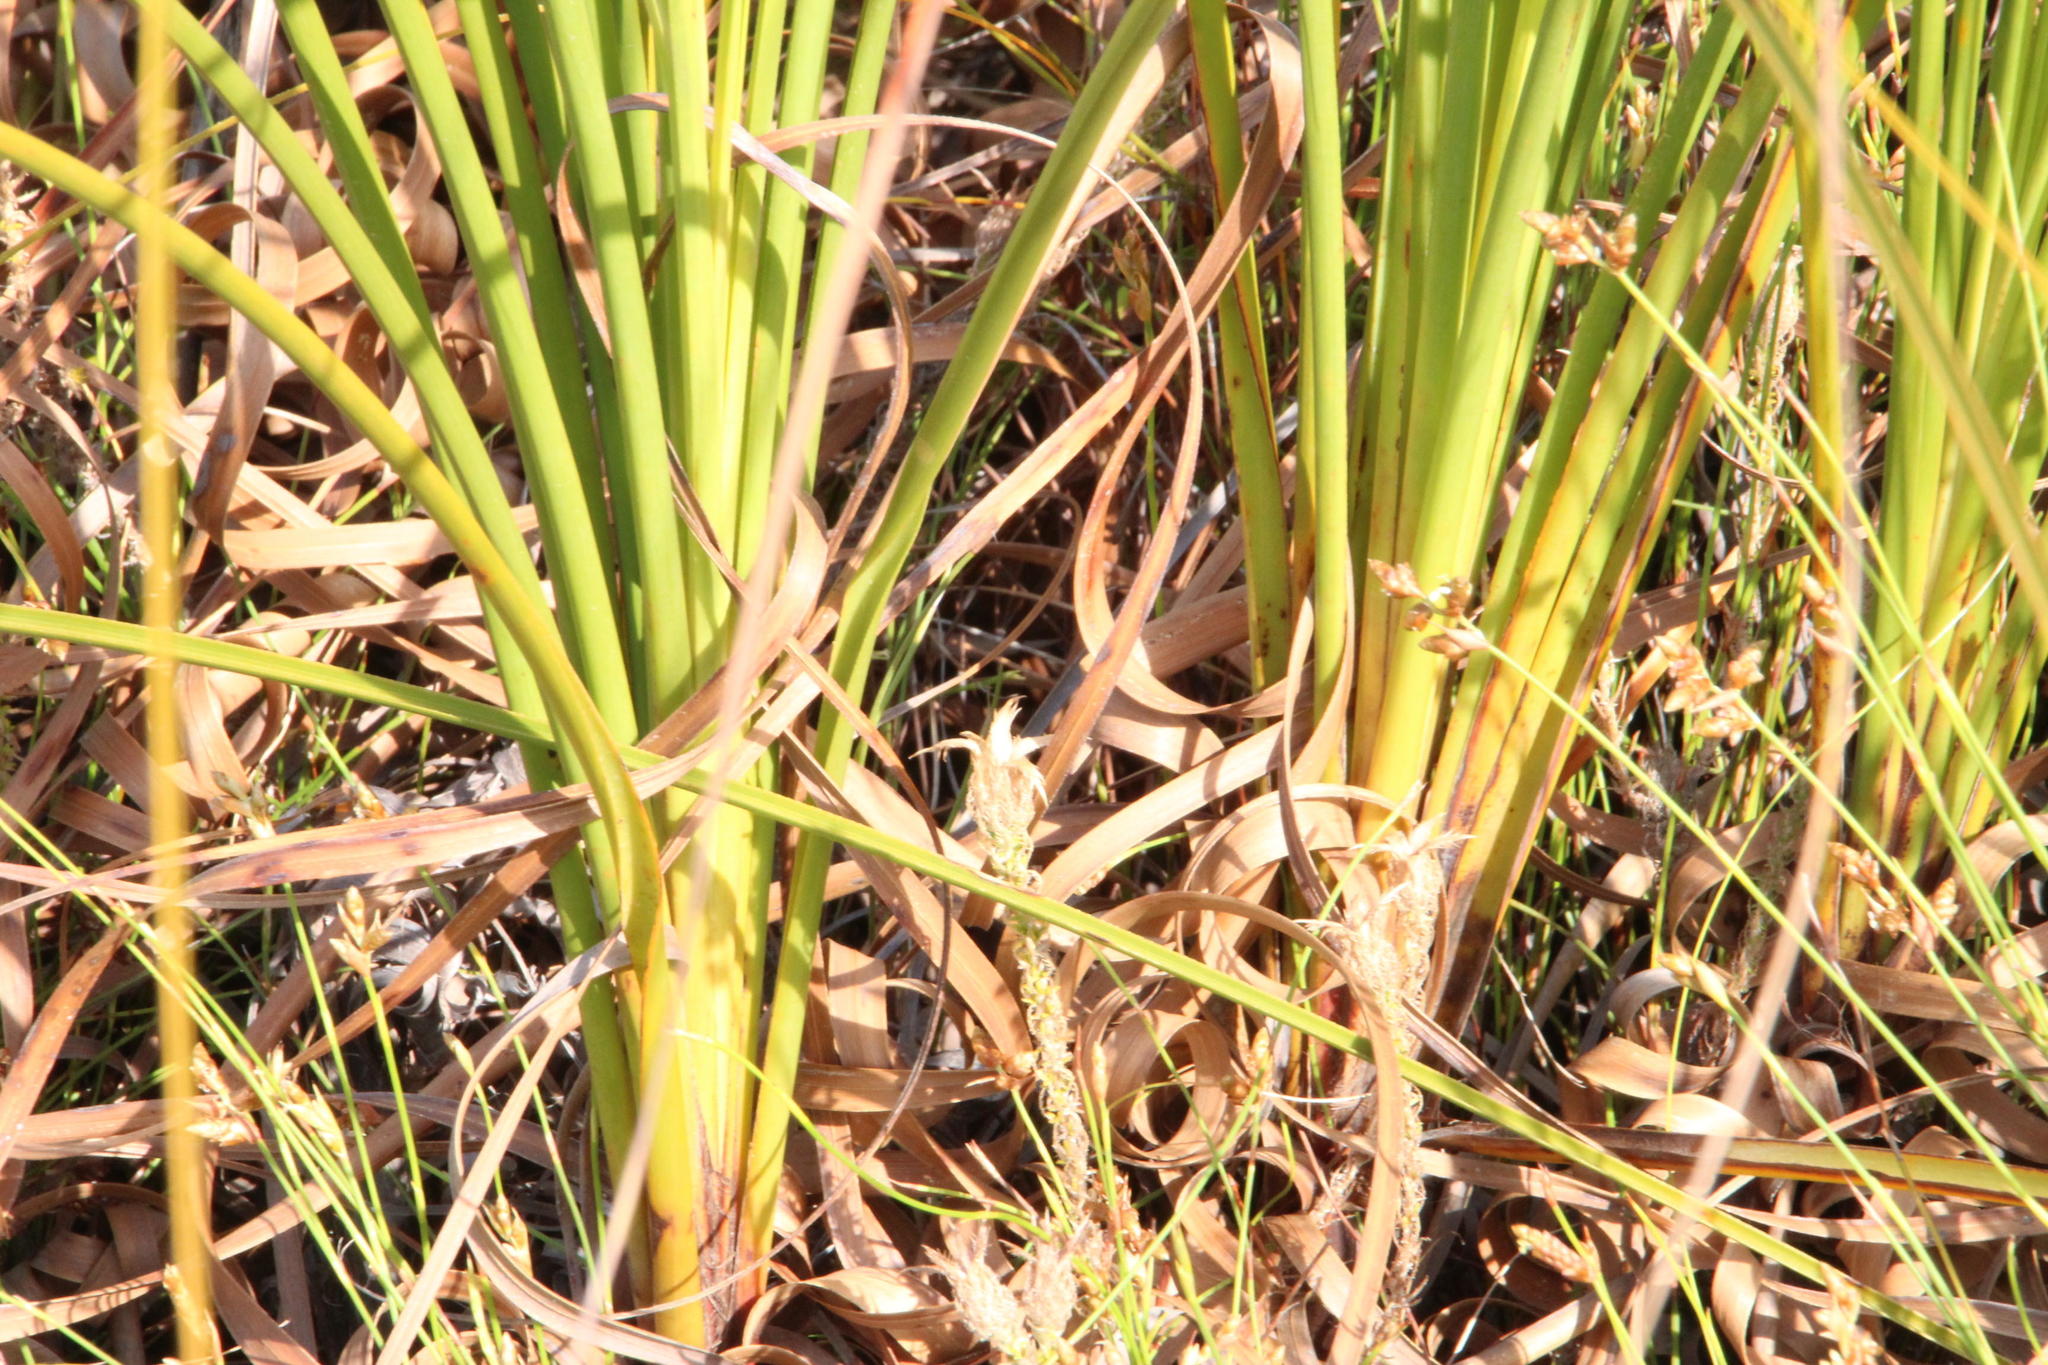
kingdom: Plantae
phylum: Tracheophyta
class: Liliopsida
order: Poales
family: Cyperaceae
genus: Tetraria
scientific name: Tetraria involucrata
